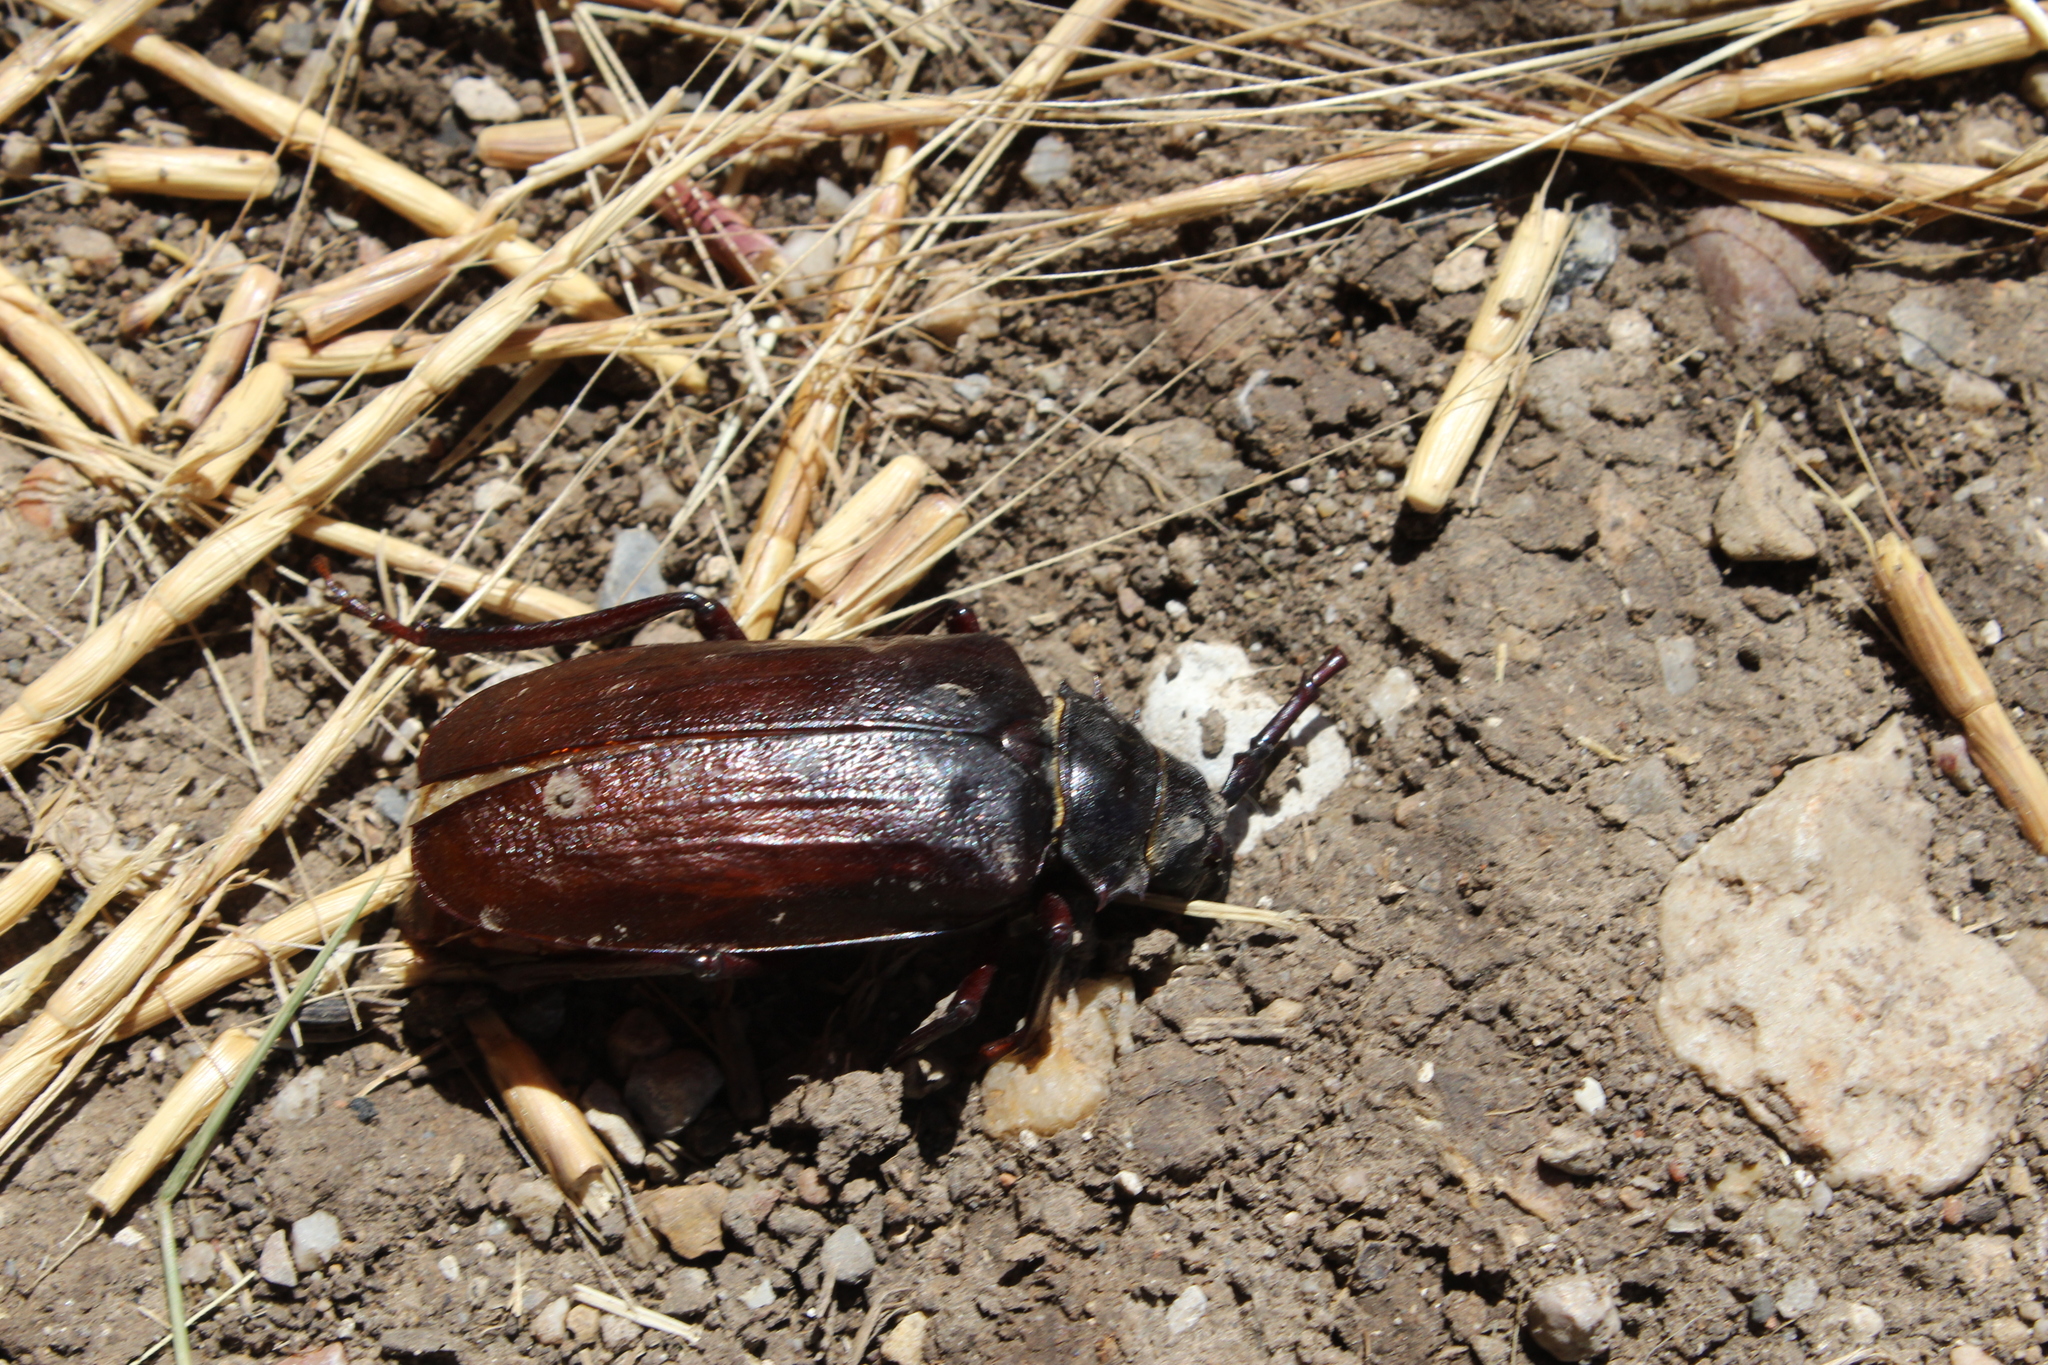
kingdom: Animalia
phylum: Arthropoda
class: Insecta
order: Coleoptera
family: Cerambycidae
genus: Prionus
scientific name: Prionus californicus
